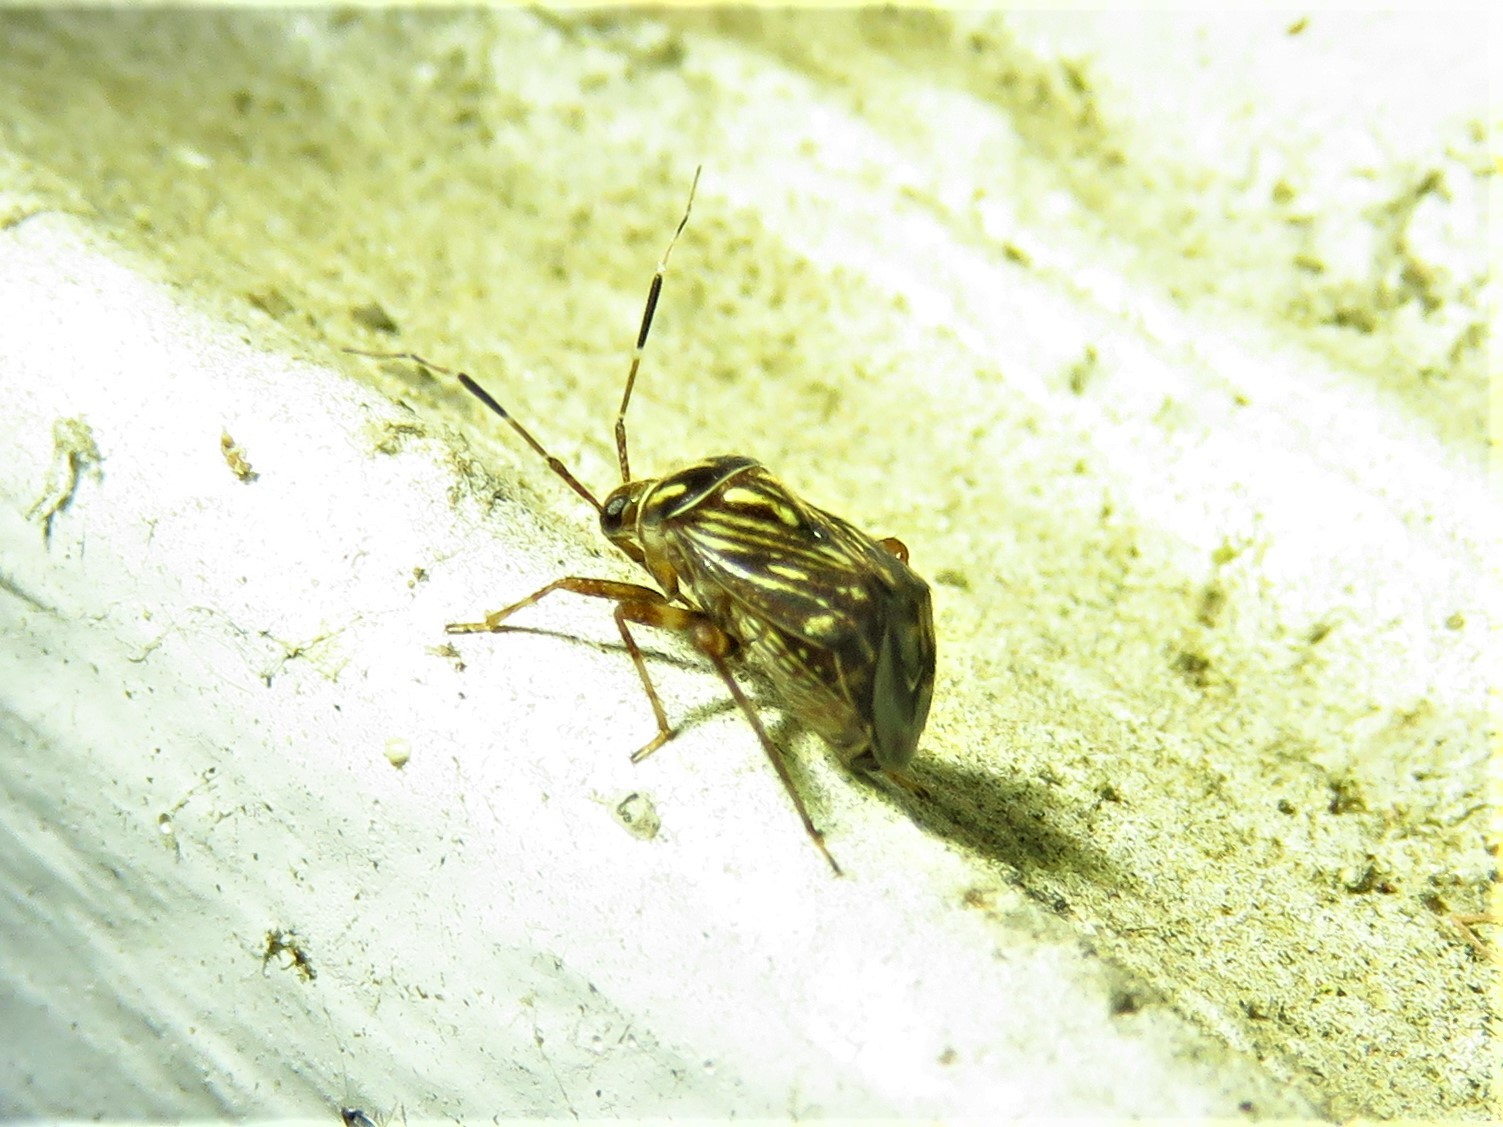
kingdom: Animalia
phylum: Arthropoda
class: Insecta
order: Hemiptera
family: Miridae
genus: Taedia
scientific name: Taedia virgulata
